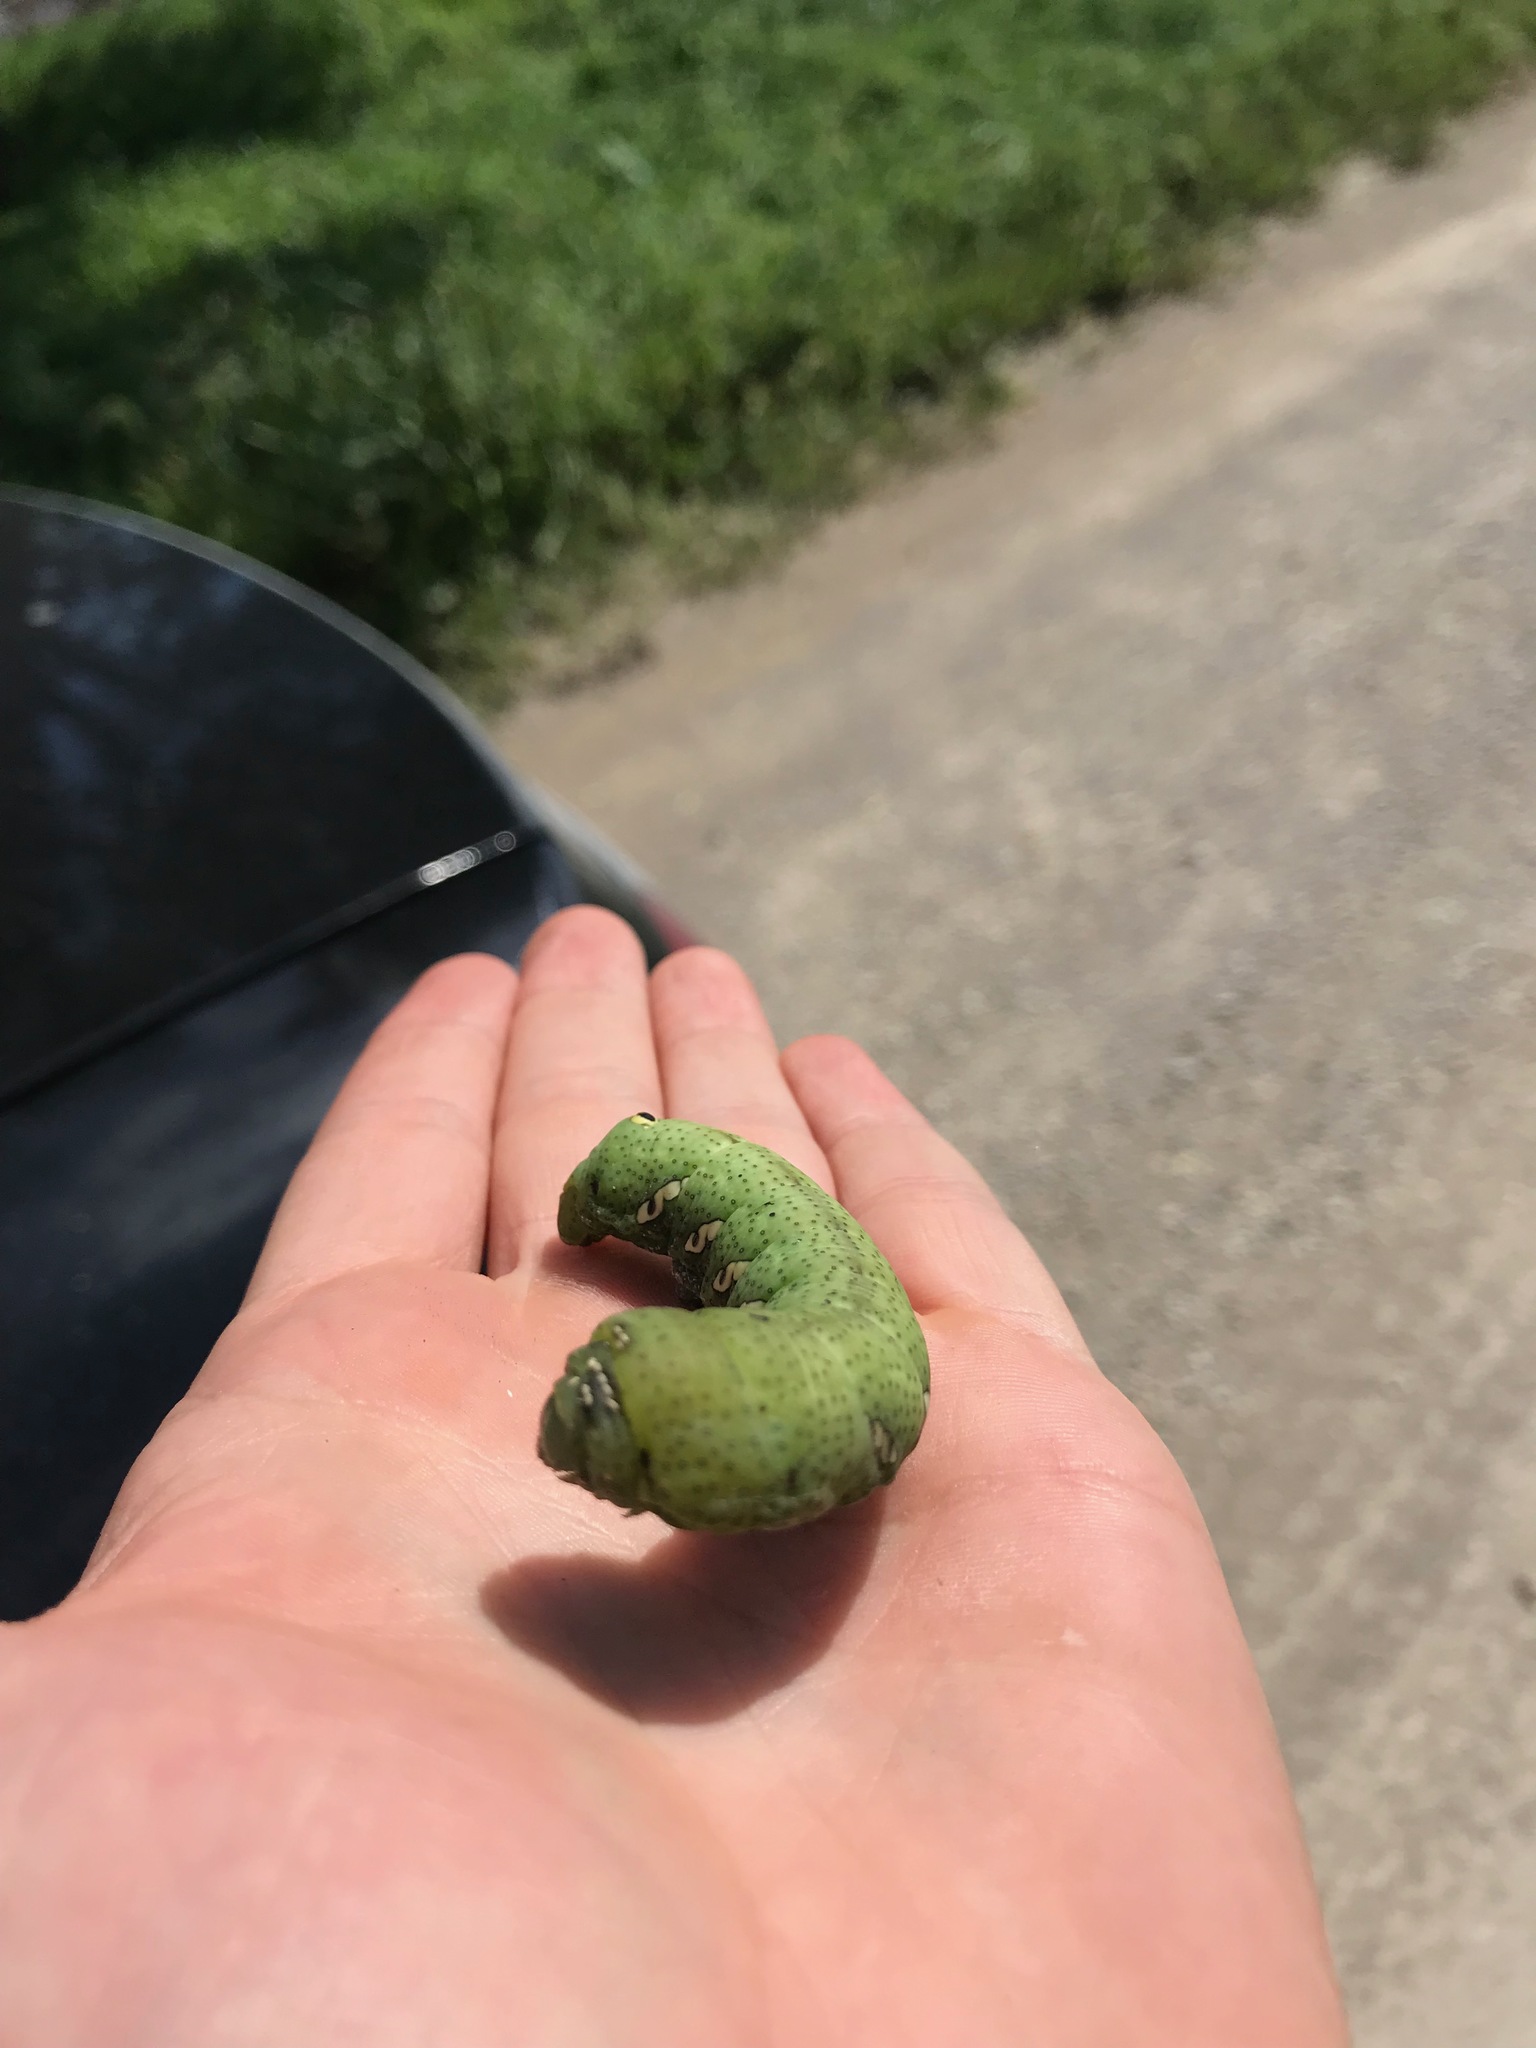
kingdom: Animalia
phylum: Arthropoda
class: Insecta
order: Lepidoptera
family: Sphingidae
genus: Eumorpha
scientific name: Eumorpha achemon
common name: Achemon sphinx
